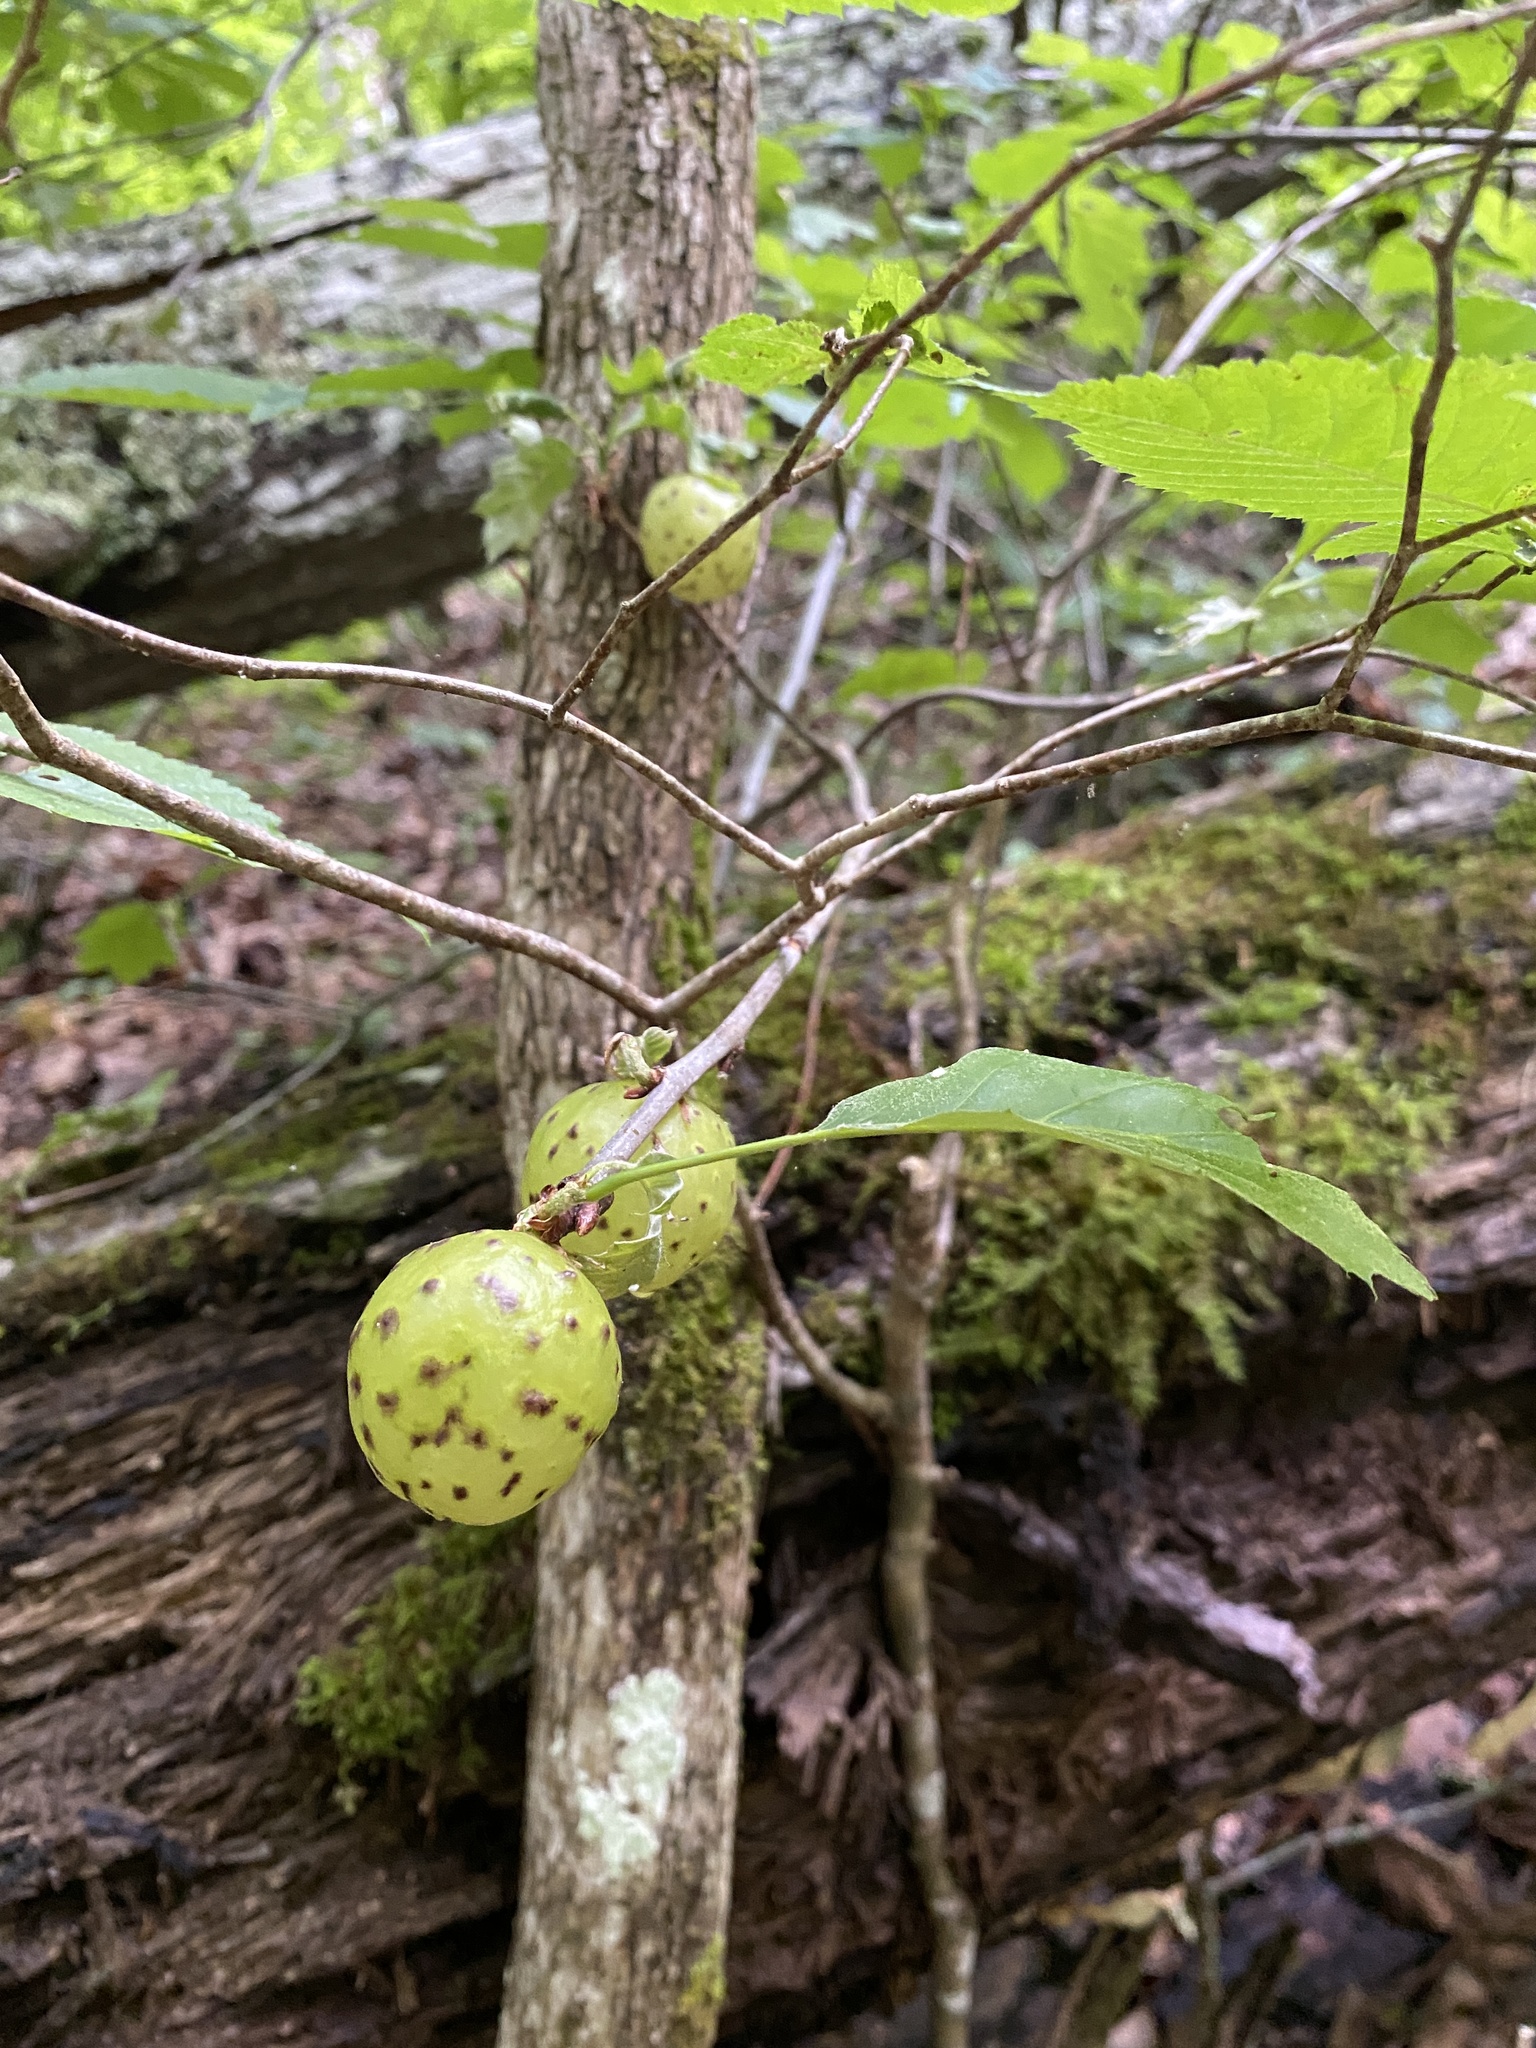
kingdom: Animalia
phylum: Arthropoda
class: Insecta
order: Hymenoptera
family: Cynipidae
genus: Amphibolips
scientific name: Amphibolips
